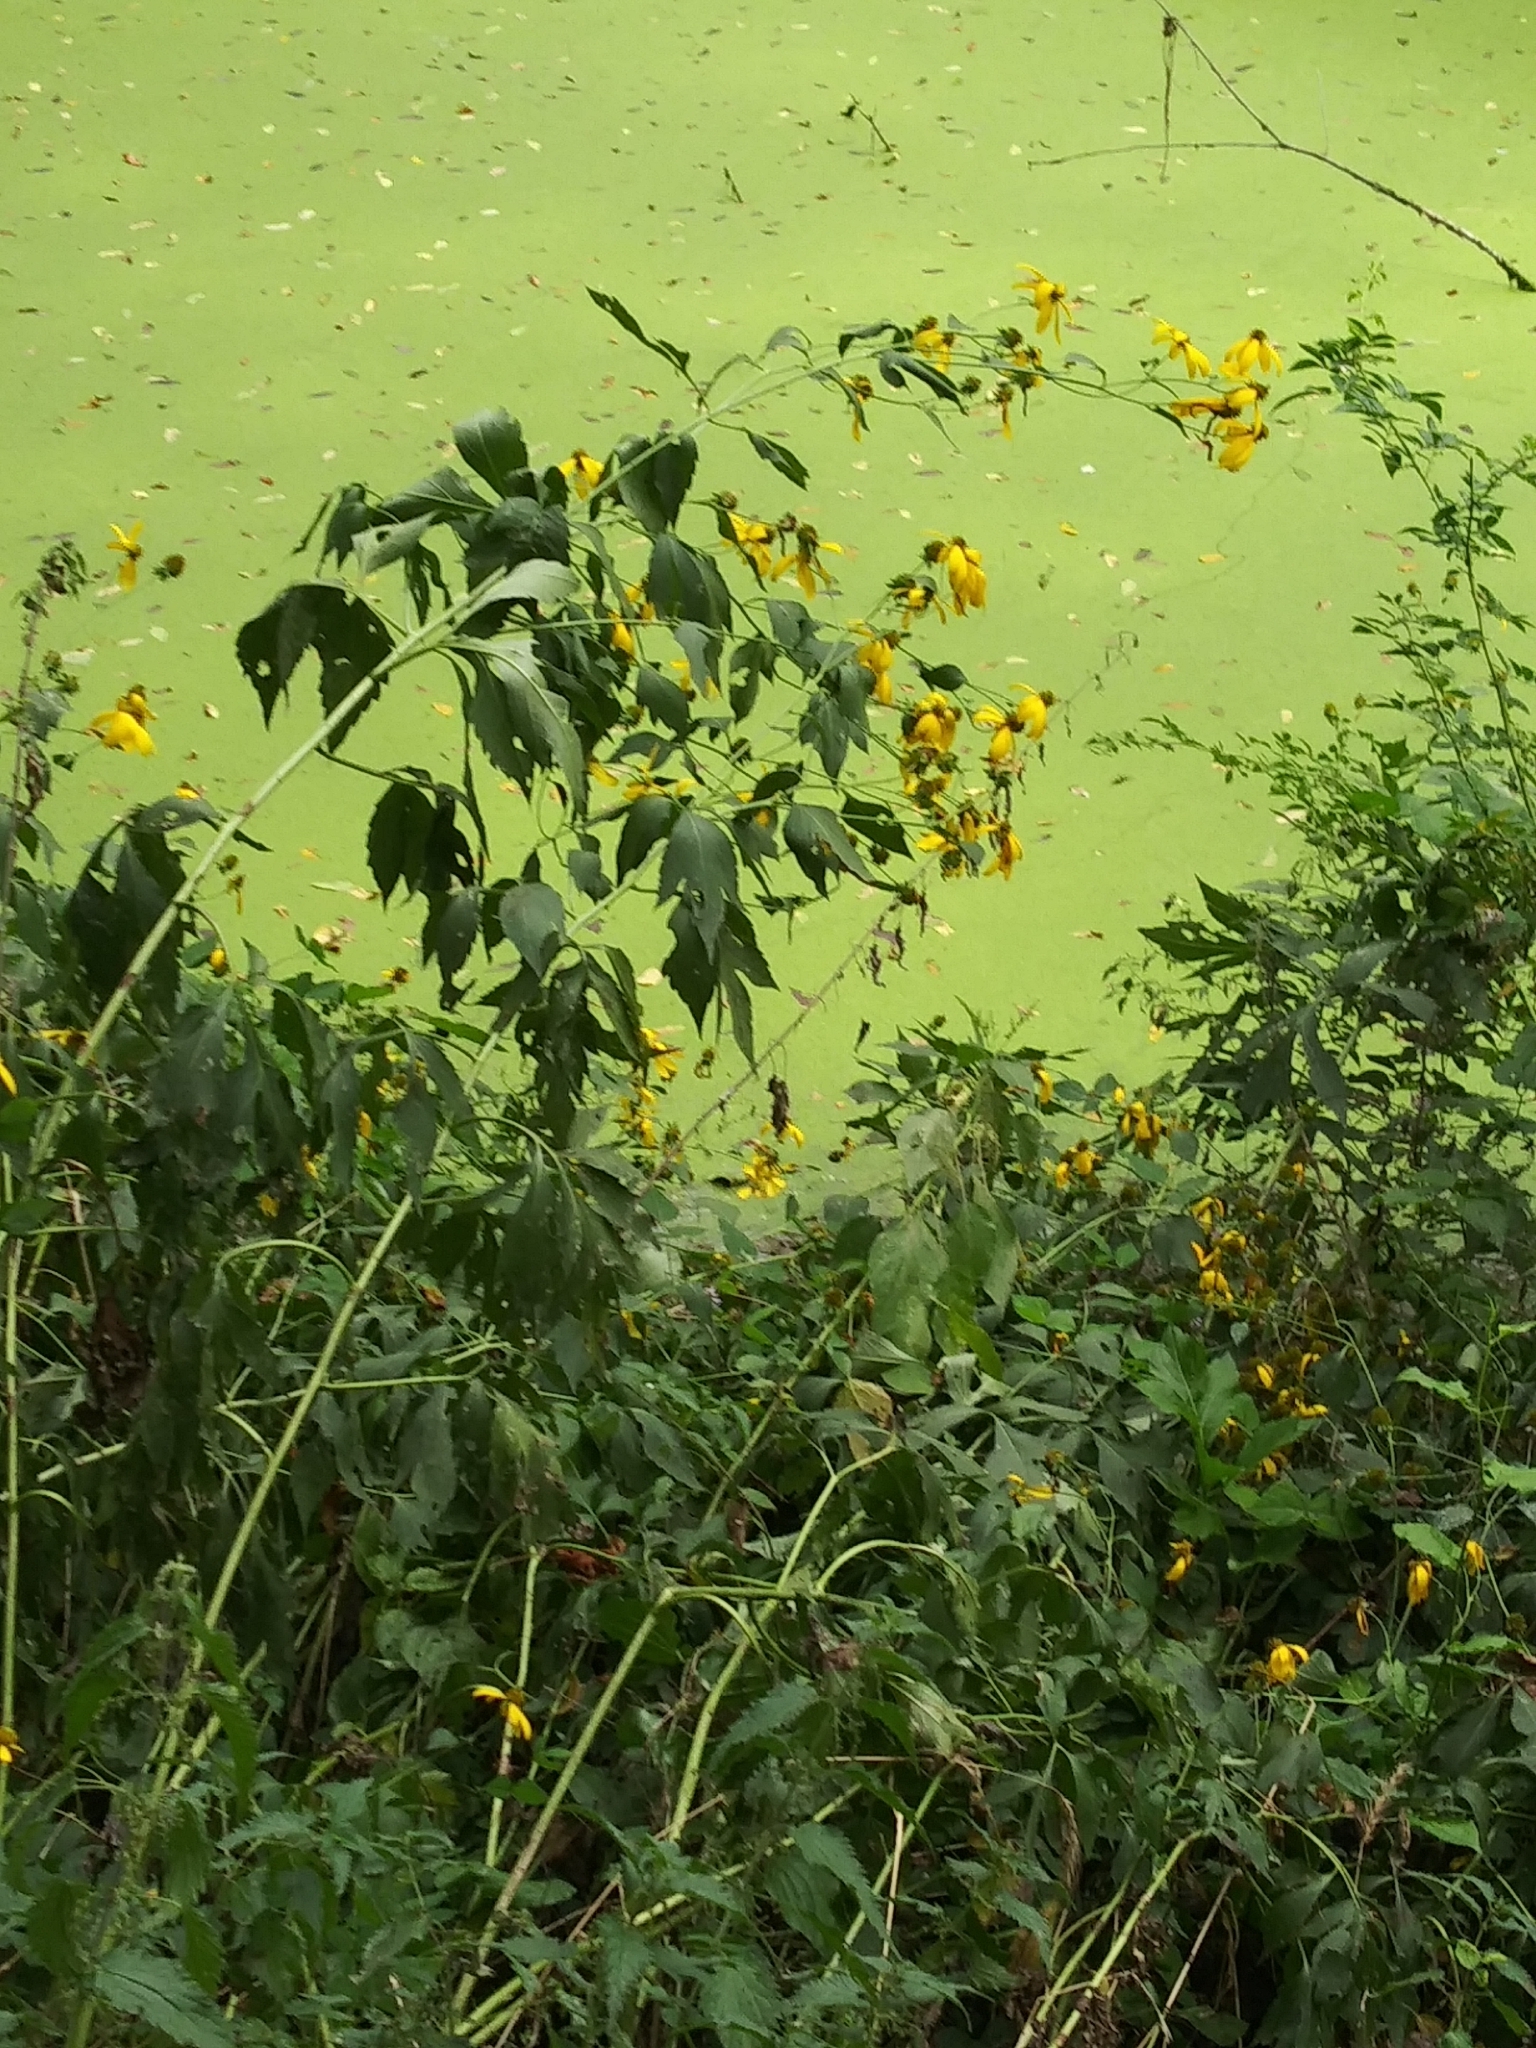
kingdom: Plantae
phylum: Tracheophyta
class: Magnoliopsida
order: Asterales
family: Asteraceae
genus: Rudbeckia
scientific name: Rudbeckia laciniata
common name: Coneflower
